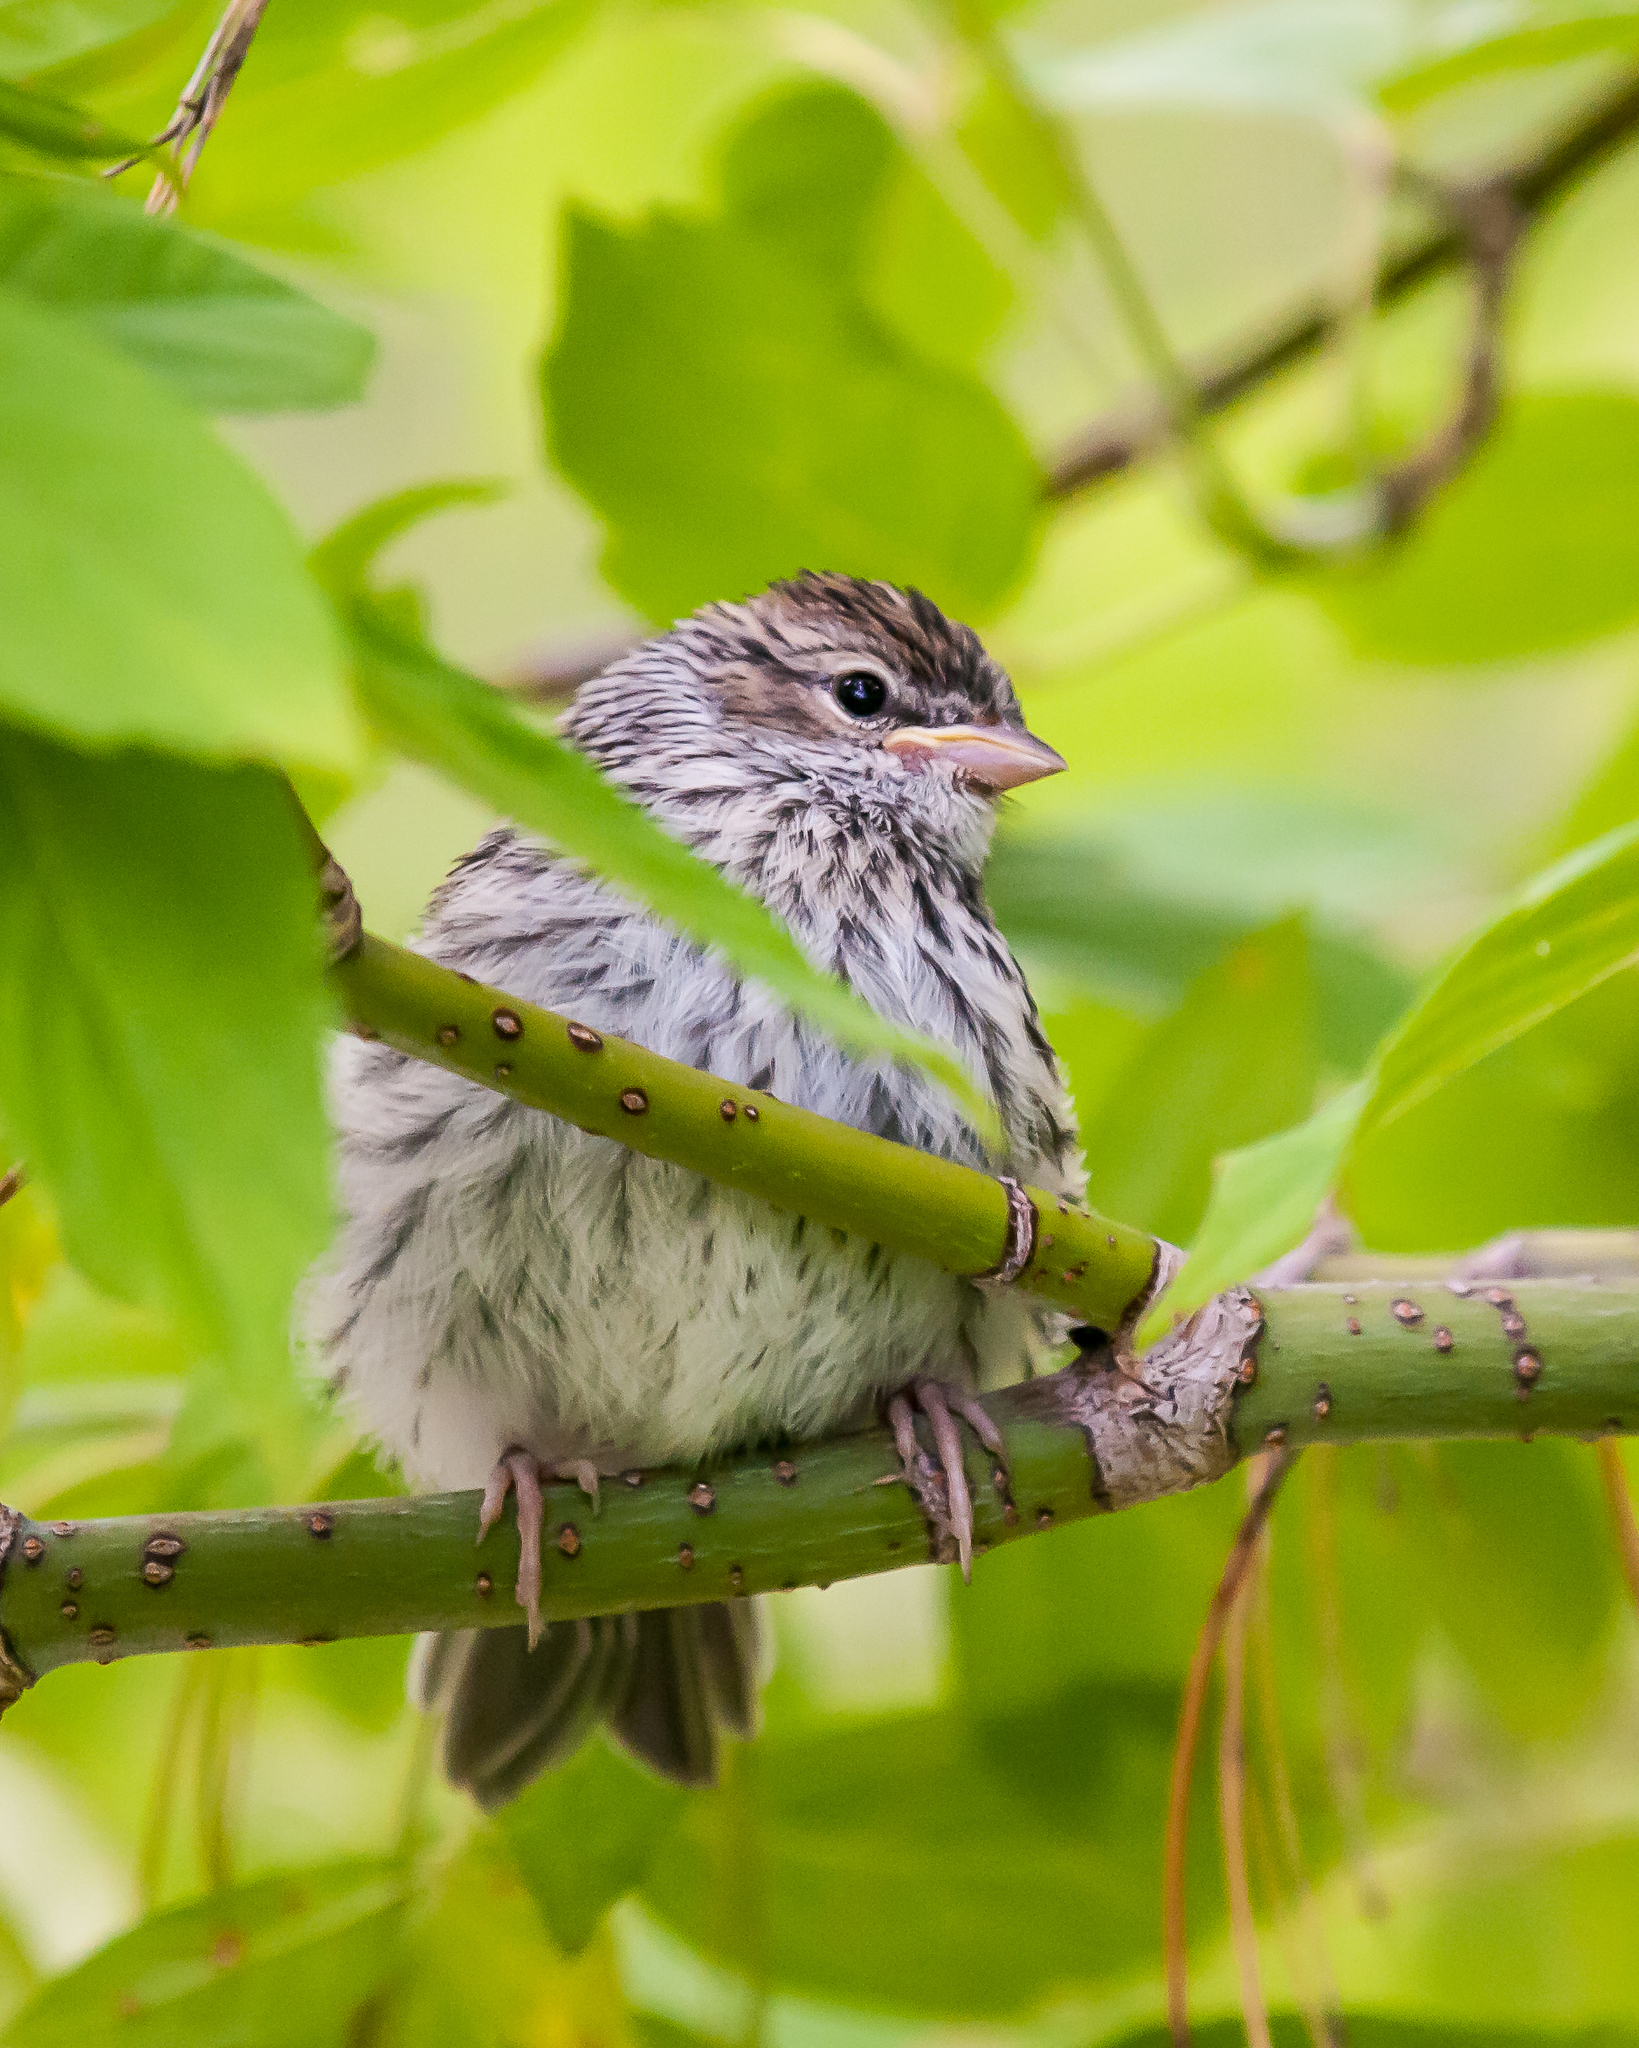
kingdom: Animalia
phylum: Chordata
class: Aves
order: Passeriformes
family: Passerellidae
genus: Spizella
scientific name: Spizella passerina
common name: Chipping sparrow
